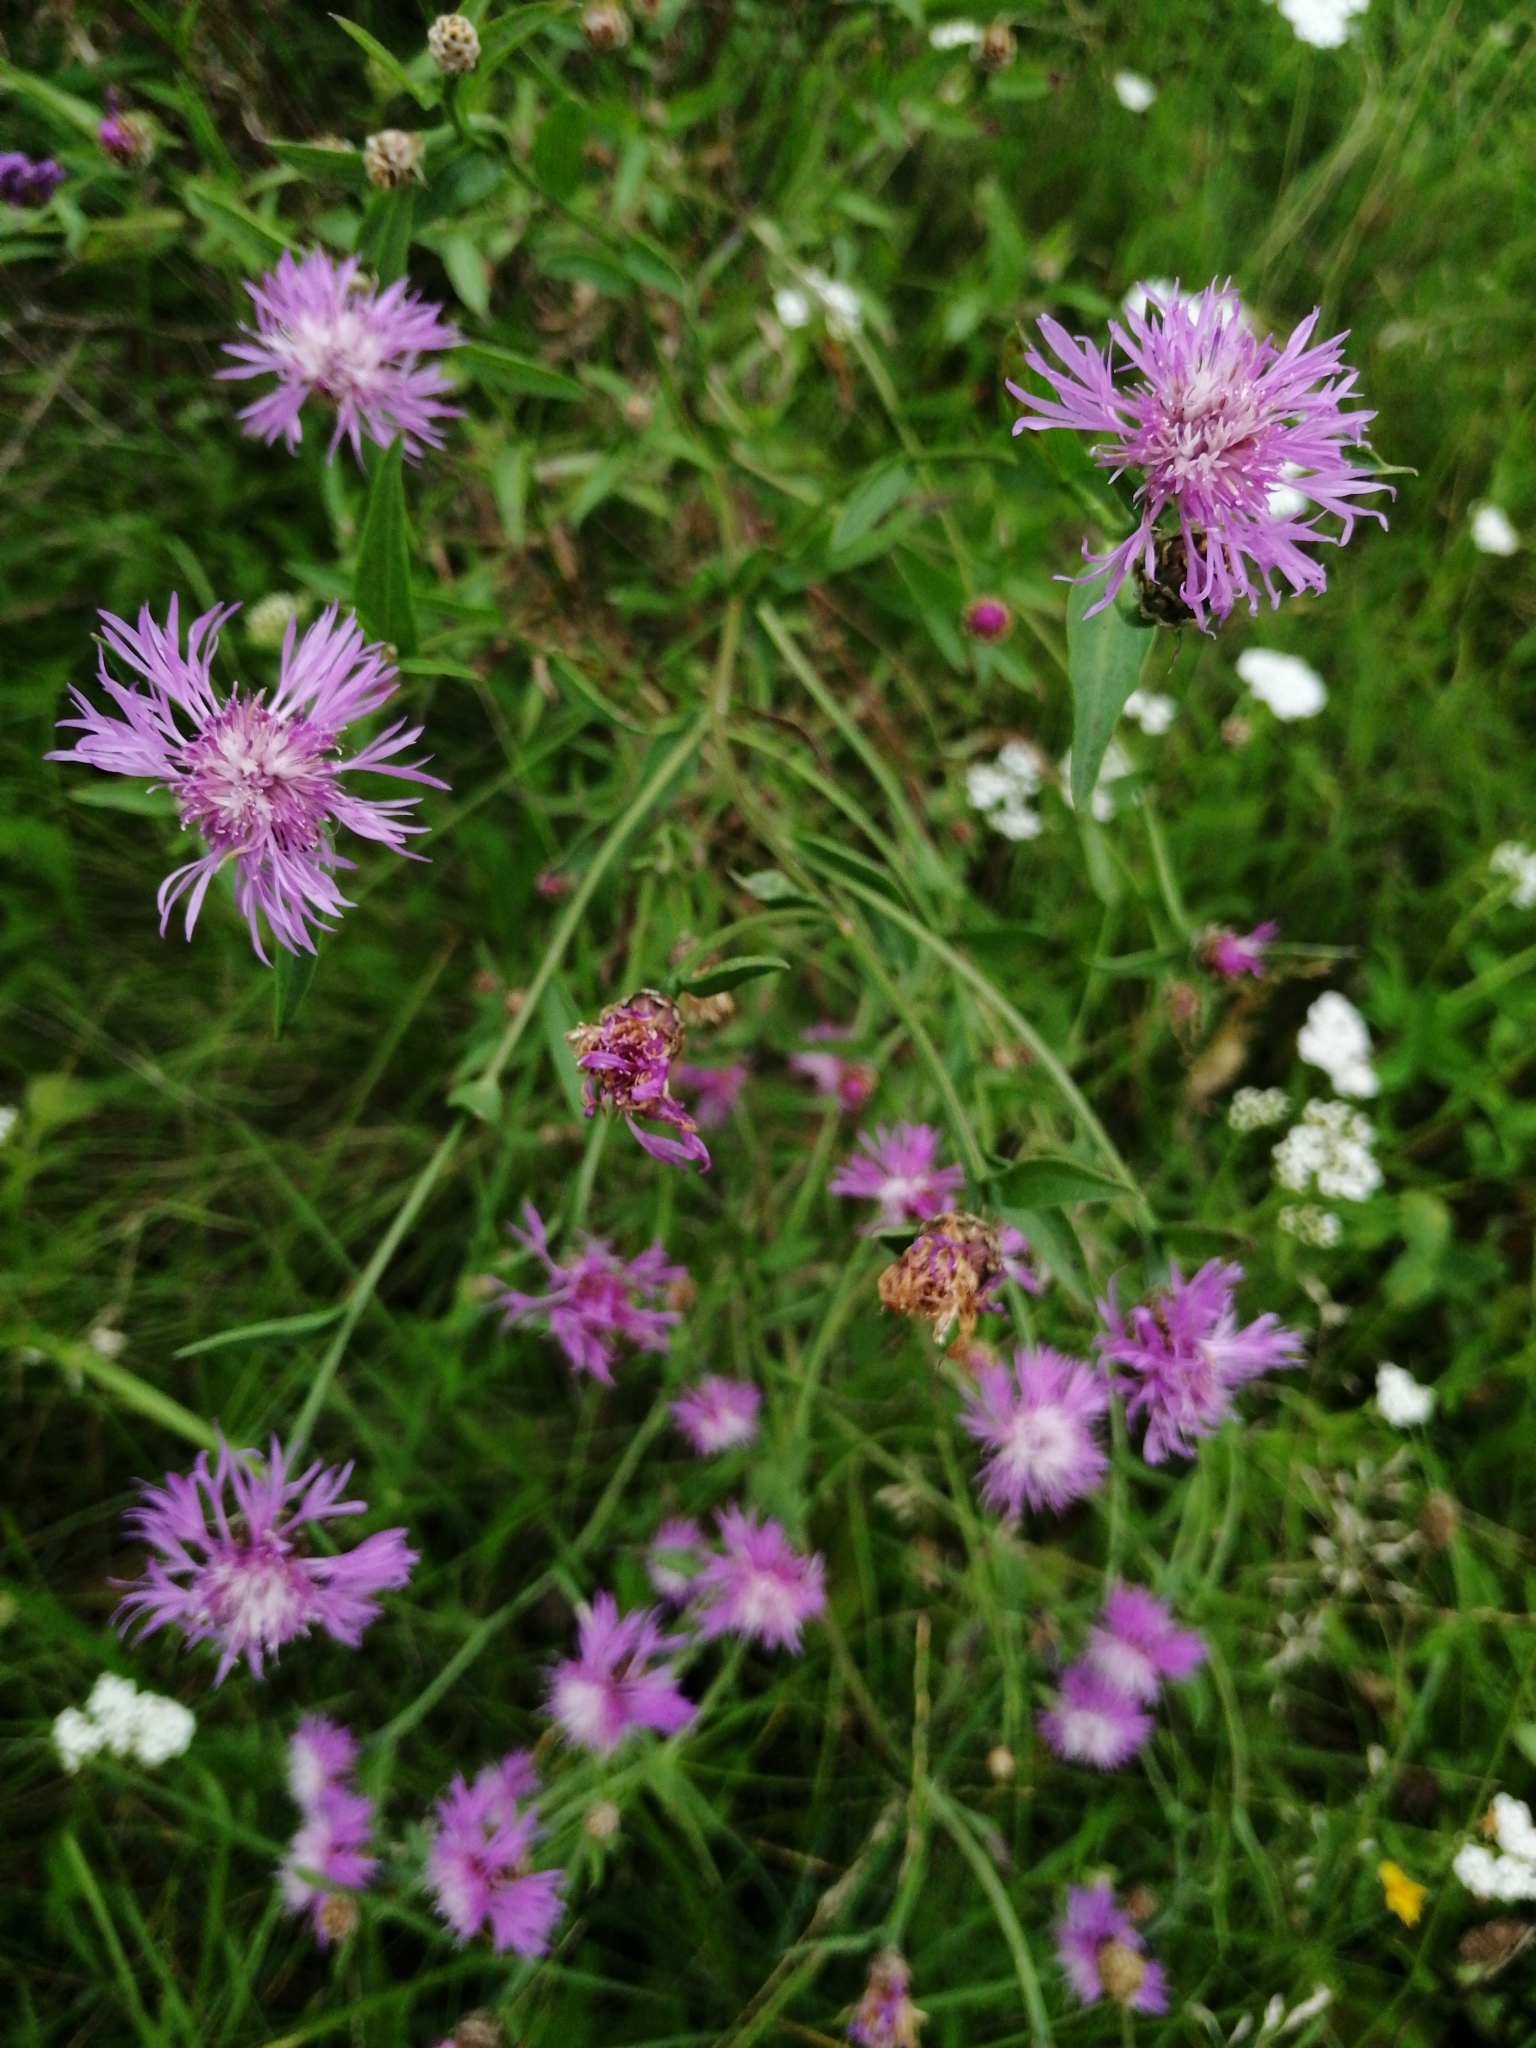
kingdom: Plantae
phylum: Tracheophyta
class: Magnoliopsida
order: Asterales
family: Asteraceae
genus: Centaurea
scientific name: Centaurea jacea
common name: Brown knapweed
